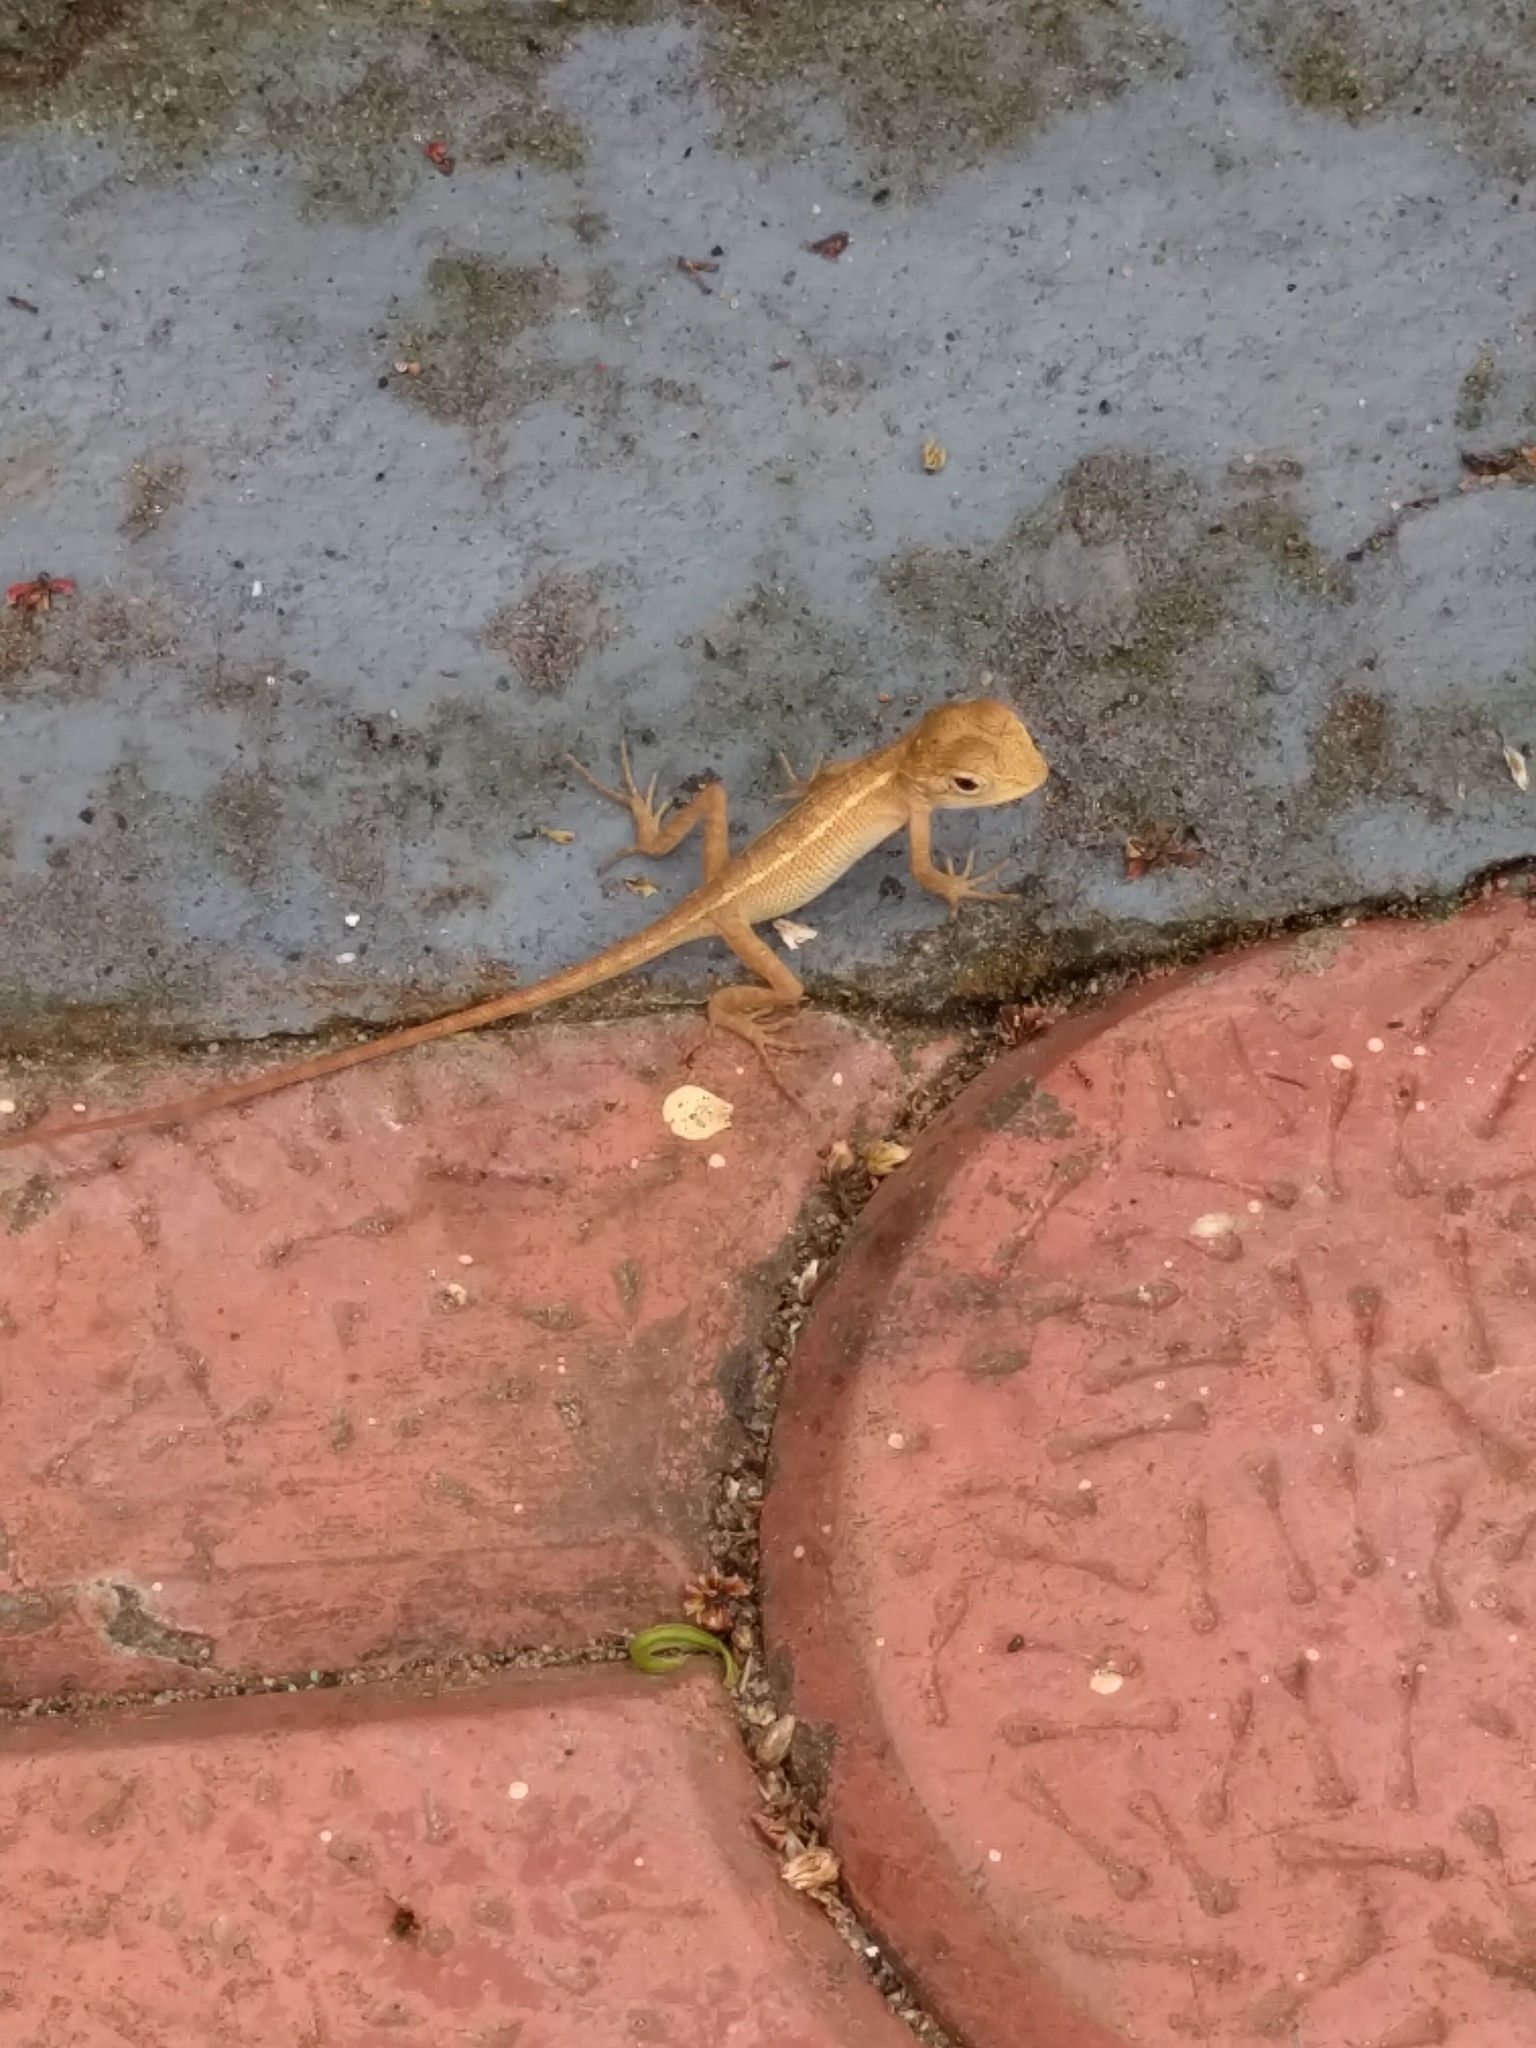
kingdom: Animalia
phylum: Chordata
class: Squamata
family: Agamidae
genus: Calotes
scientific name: Calotes versicolor
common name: Oriental garden lizard
